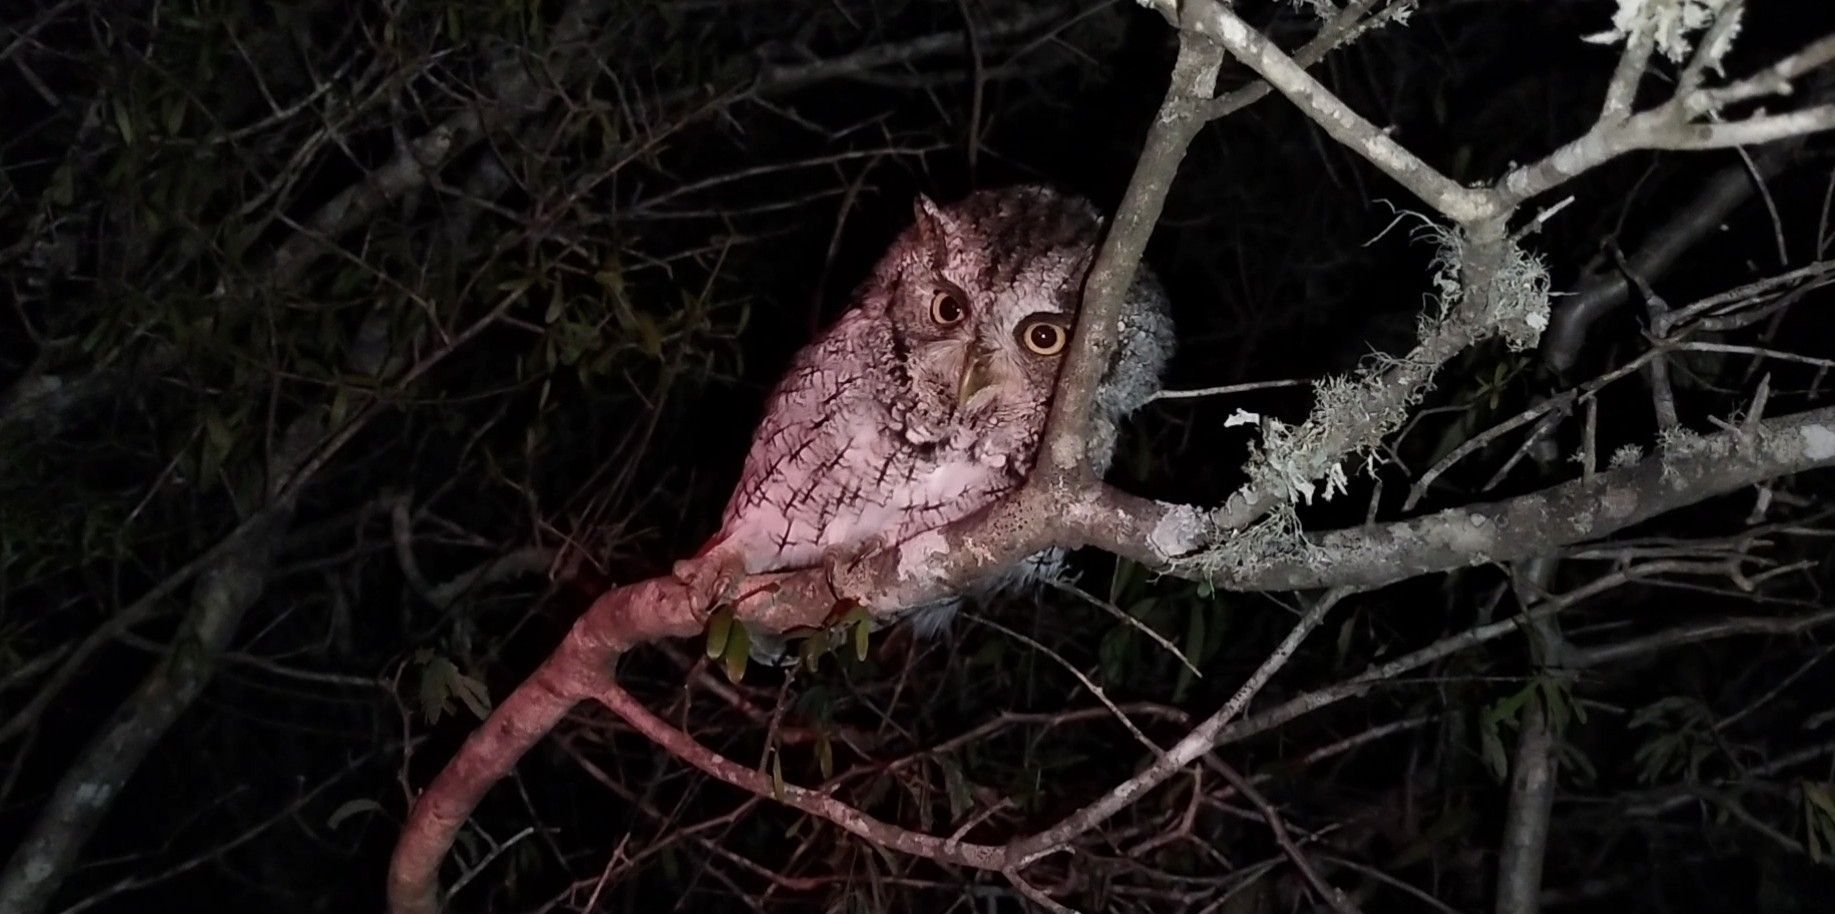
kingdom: Animalia
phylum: Chordata
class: Aves
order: Strigiformes
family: Strigidae
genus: Megascops
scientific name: Megascops asio
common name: Eastern screech-owl
